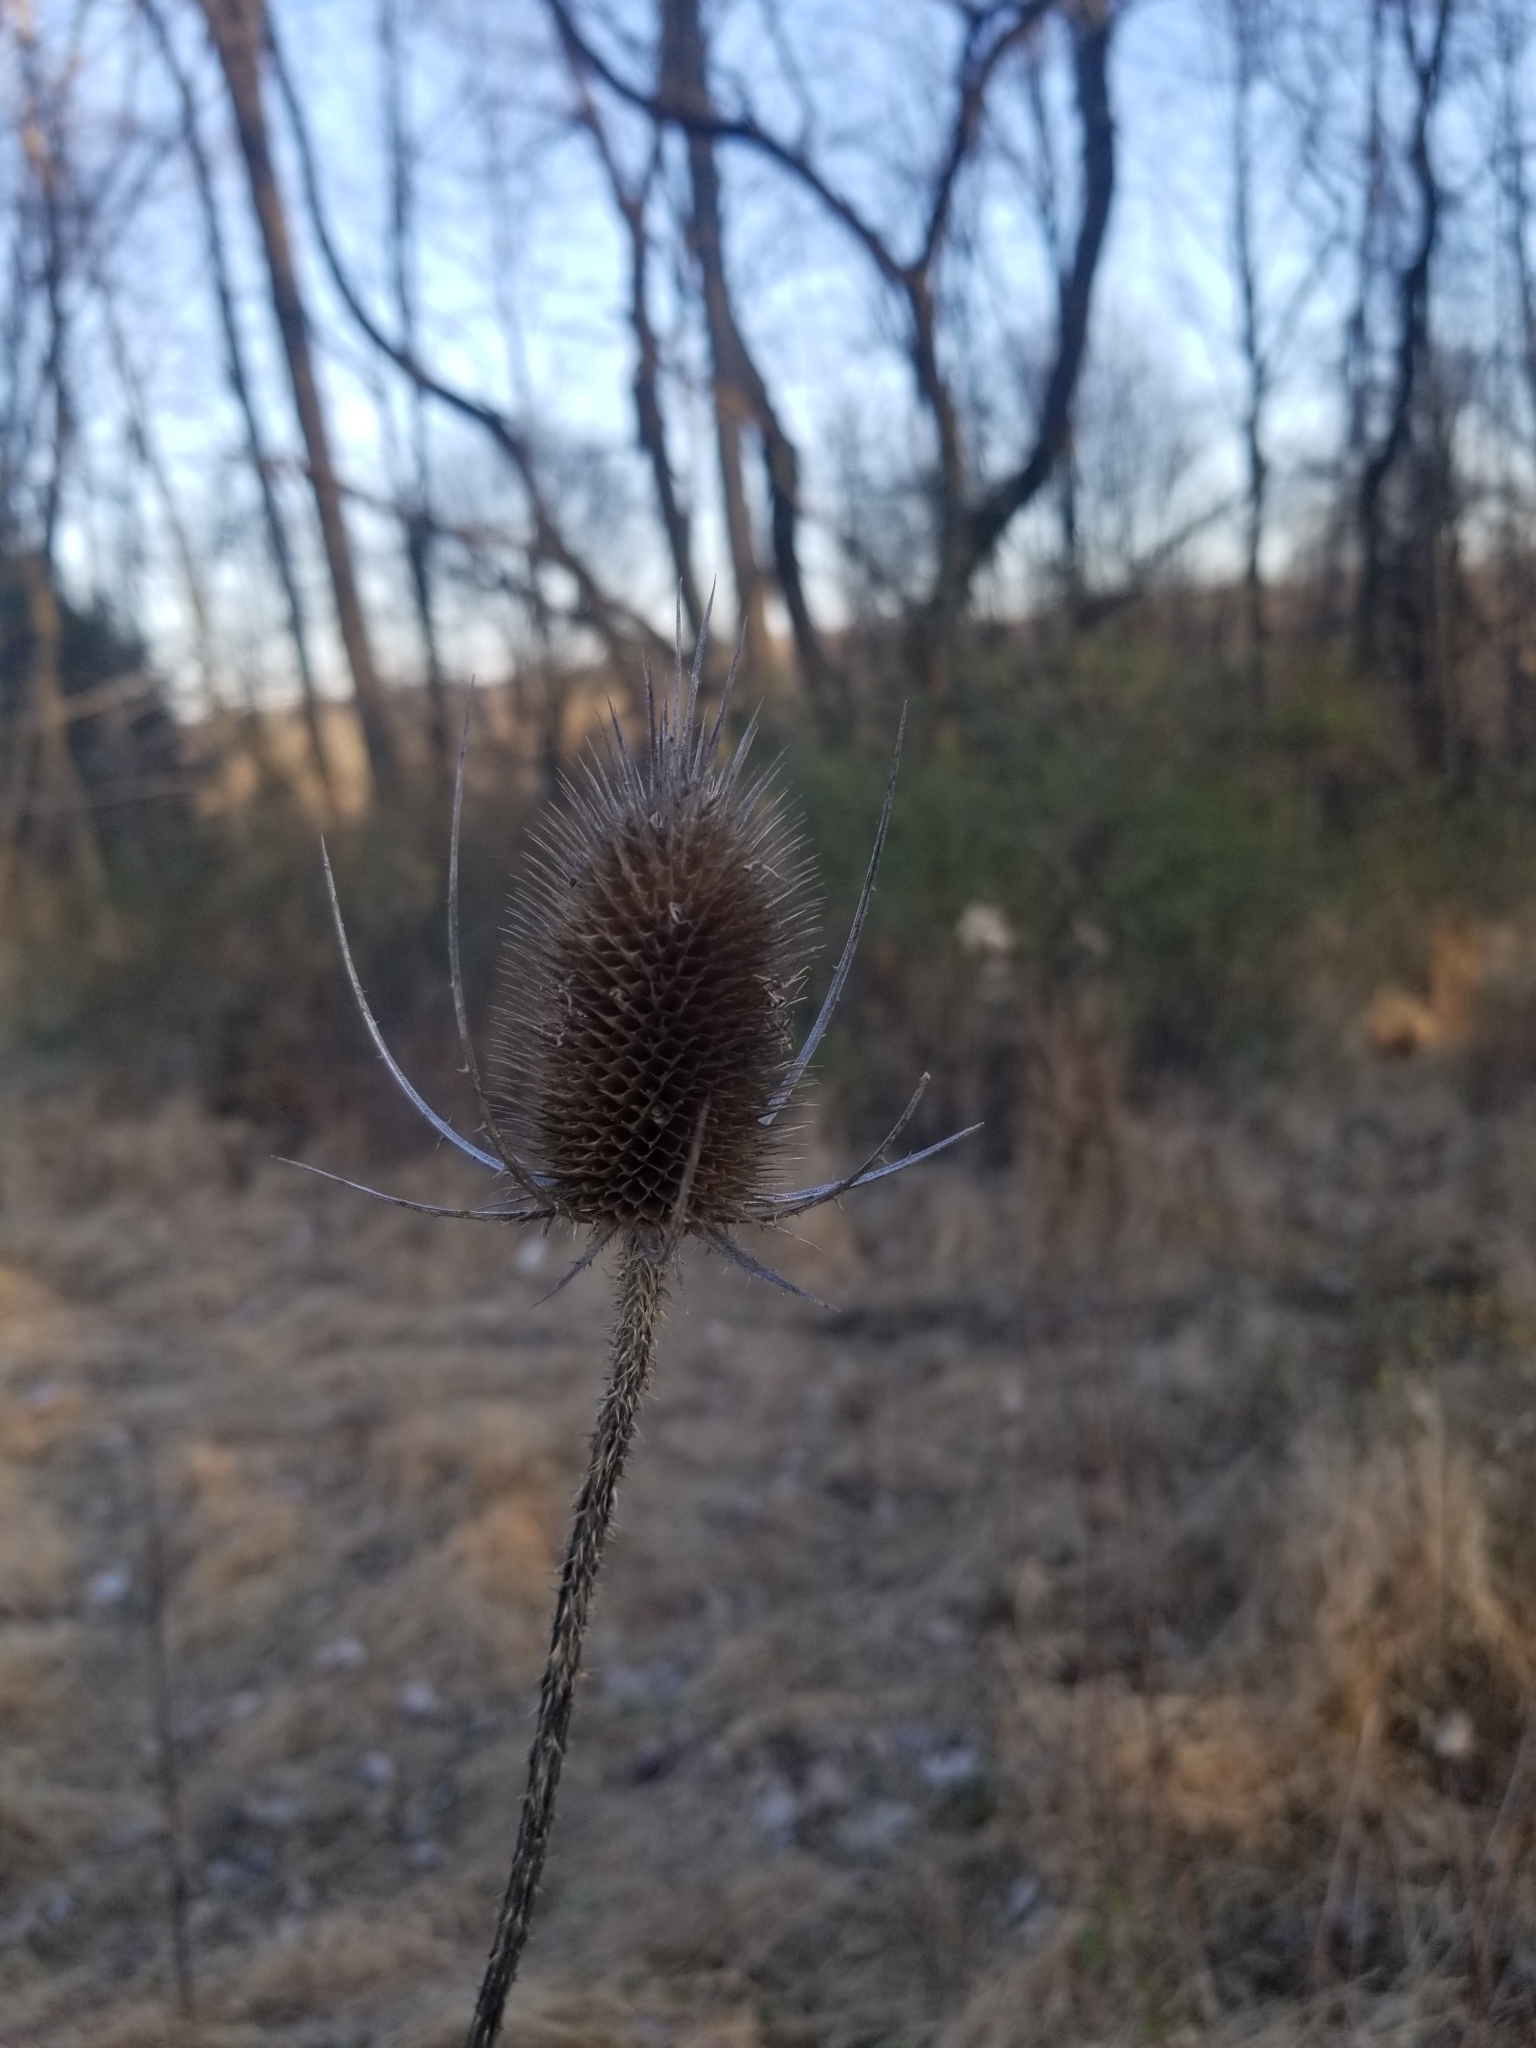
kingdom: Plantae
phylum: Tracheophyta
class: Magnoliopsida
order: Dipsacales
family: Caprifoliaceae
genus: Dipsacus
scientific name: Dipsacus fullonum
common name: Teasel
